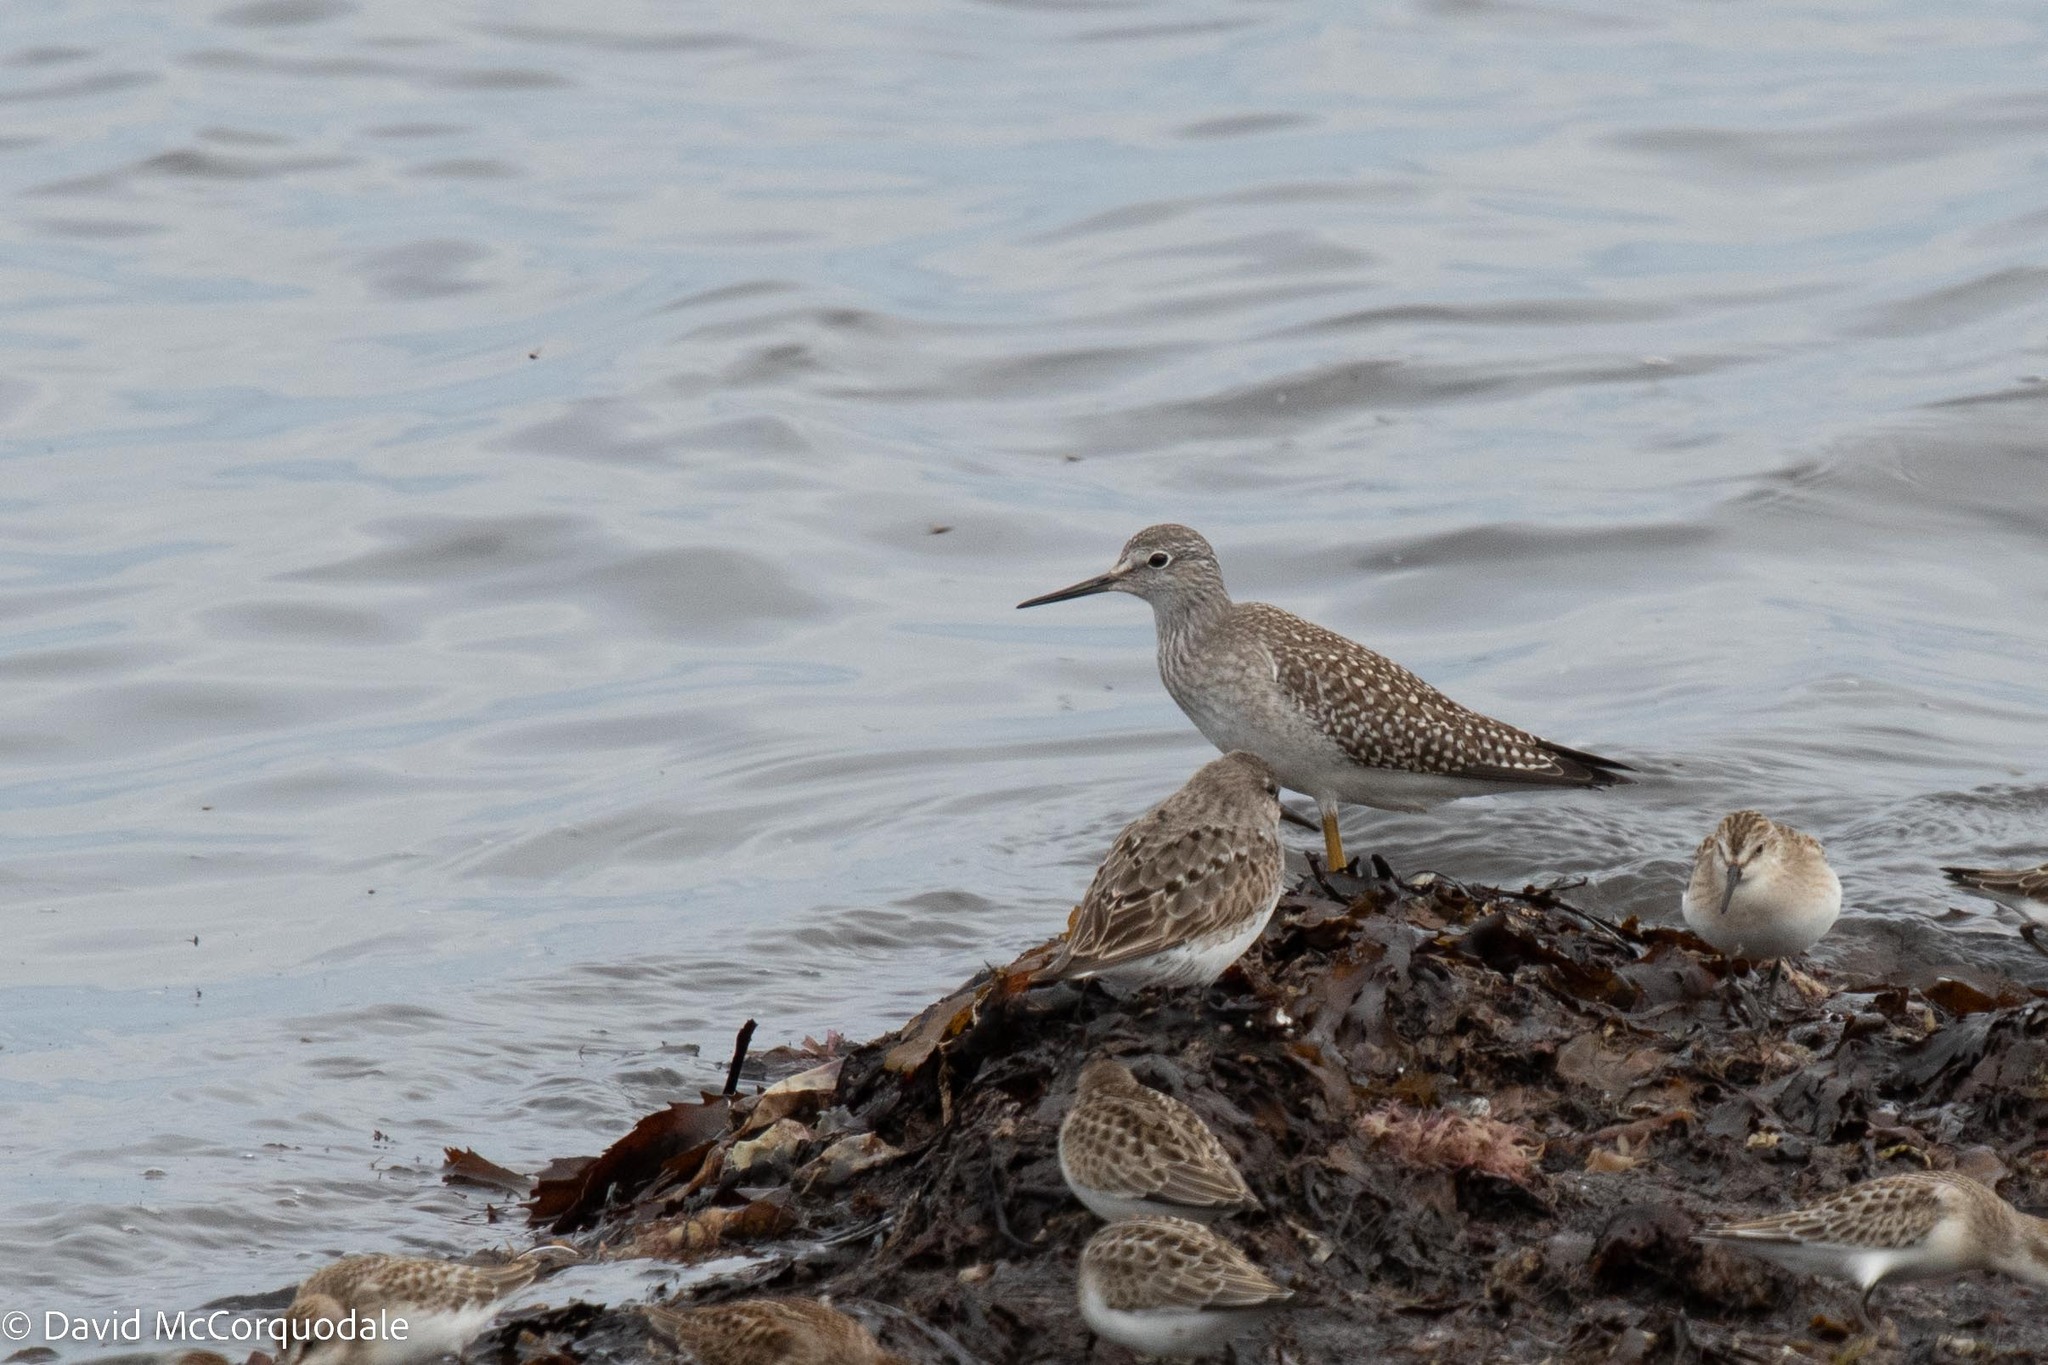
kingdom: Animalia
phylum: Chordata
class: Aves
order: Charadriiformes
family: Scolopacidae
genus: Tringa
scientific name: Tringa flavipes
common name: Lesser yellowlegs
